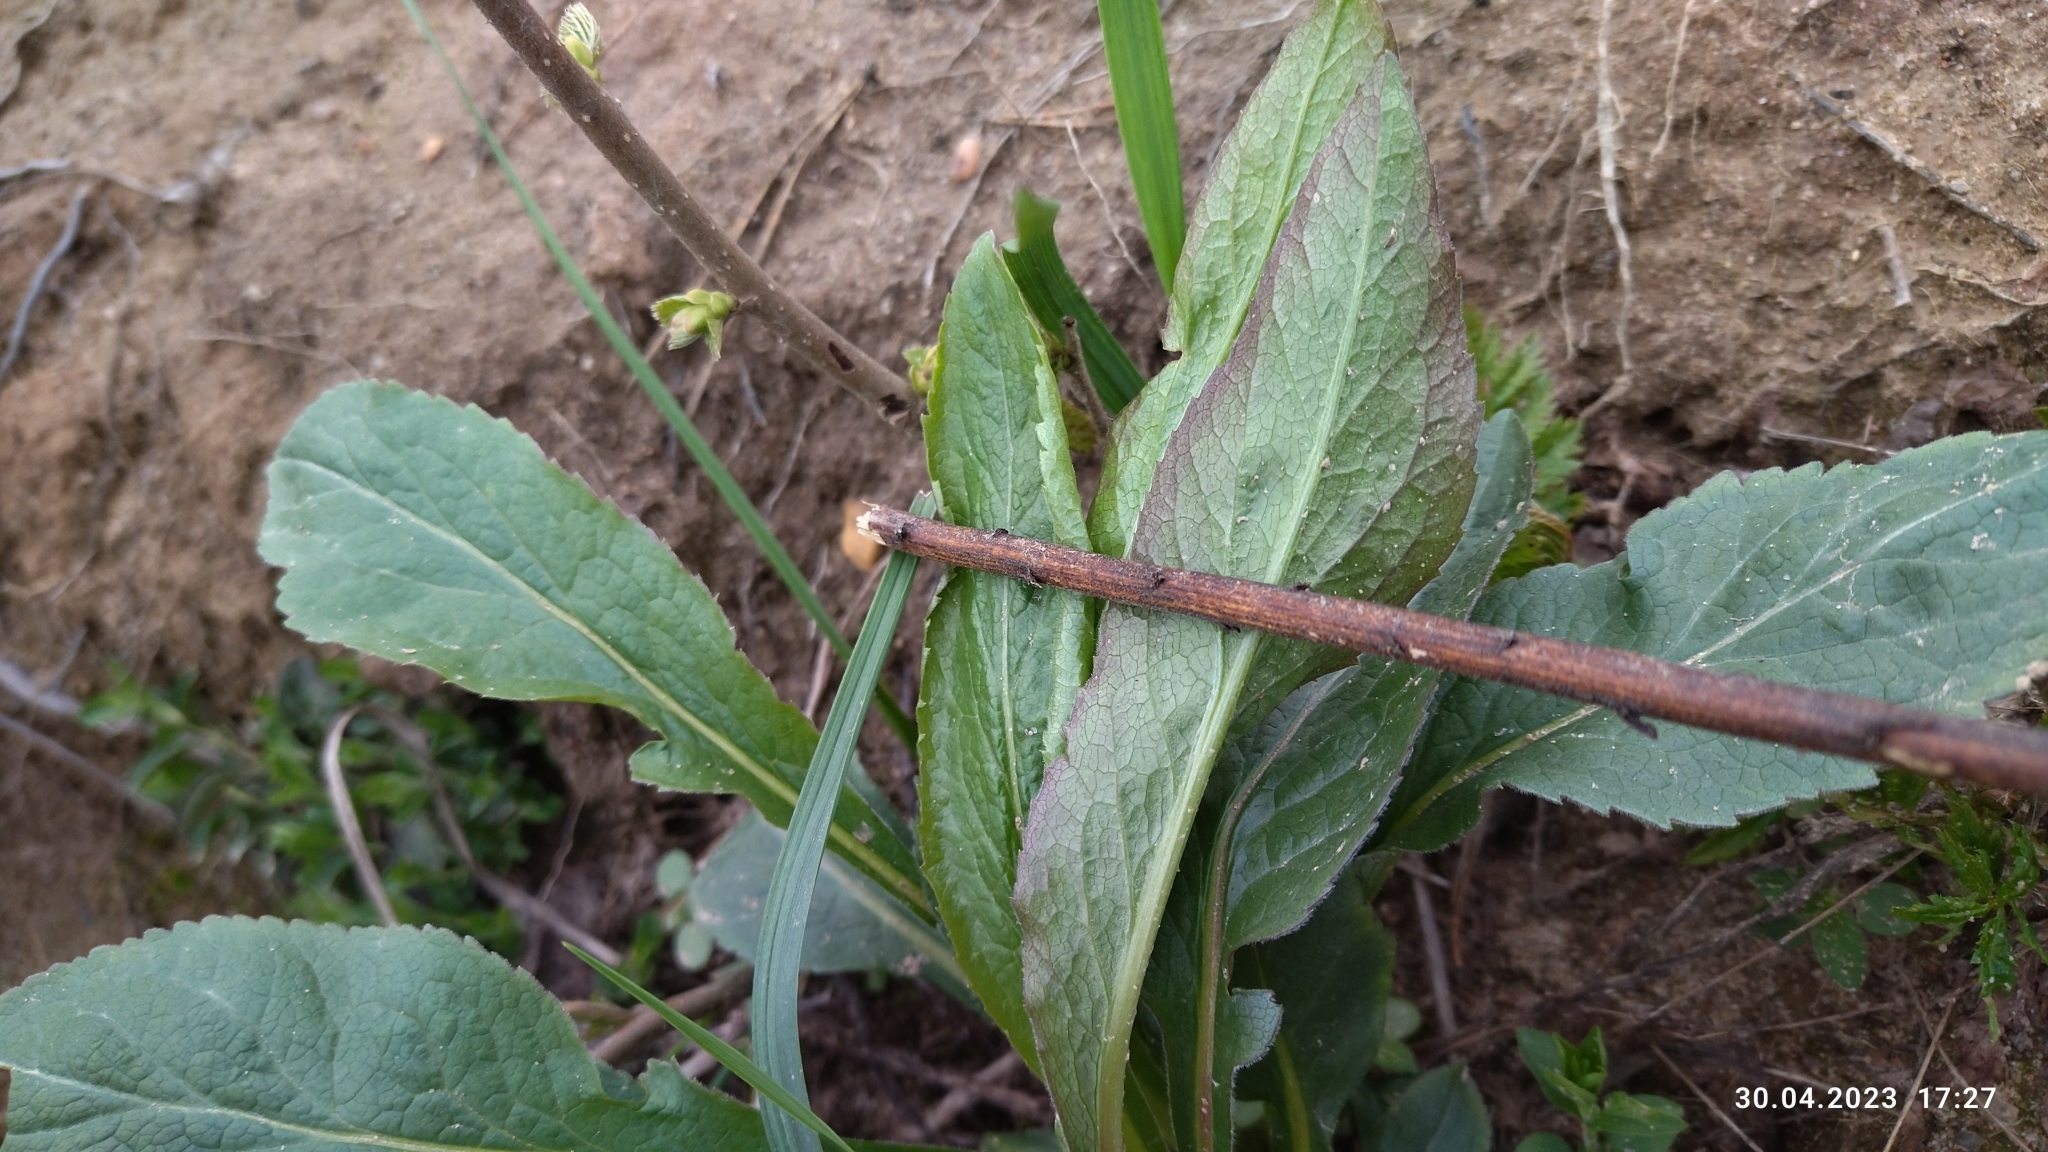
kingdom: Plantae
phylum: Tracheophyta
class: Magnoliopsida
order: Asterales
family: Asteraceae
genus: Solidago
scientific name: Solidago virgaurea
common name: Goldenrod
